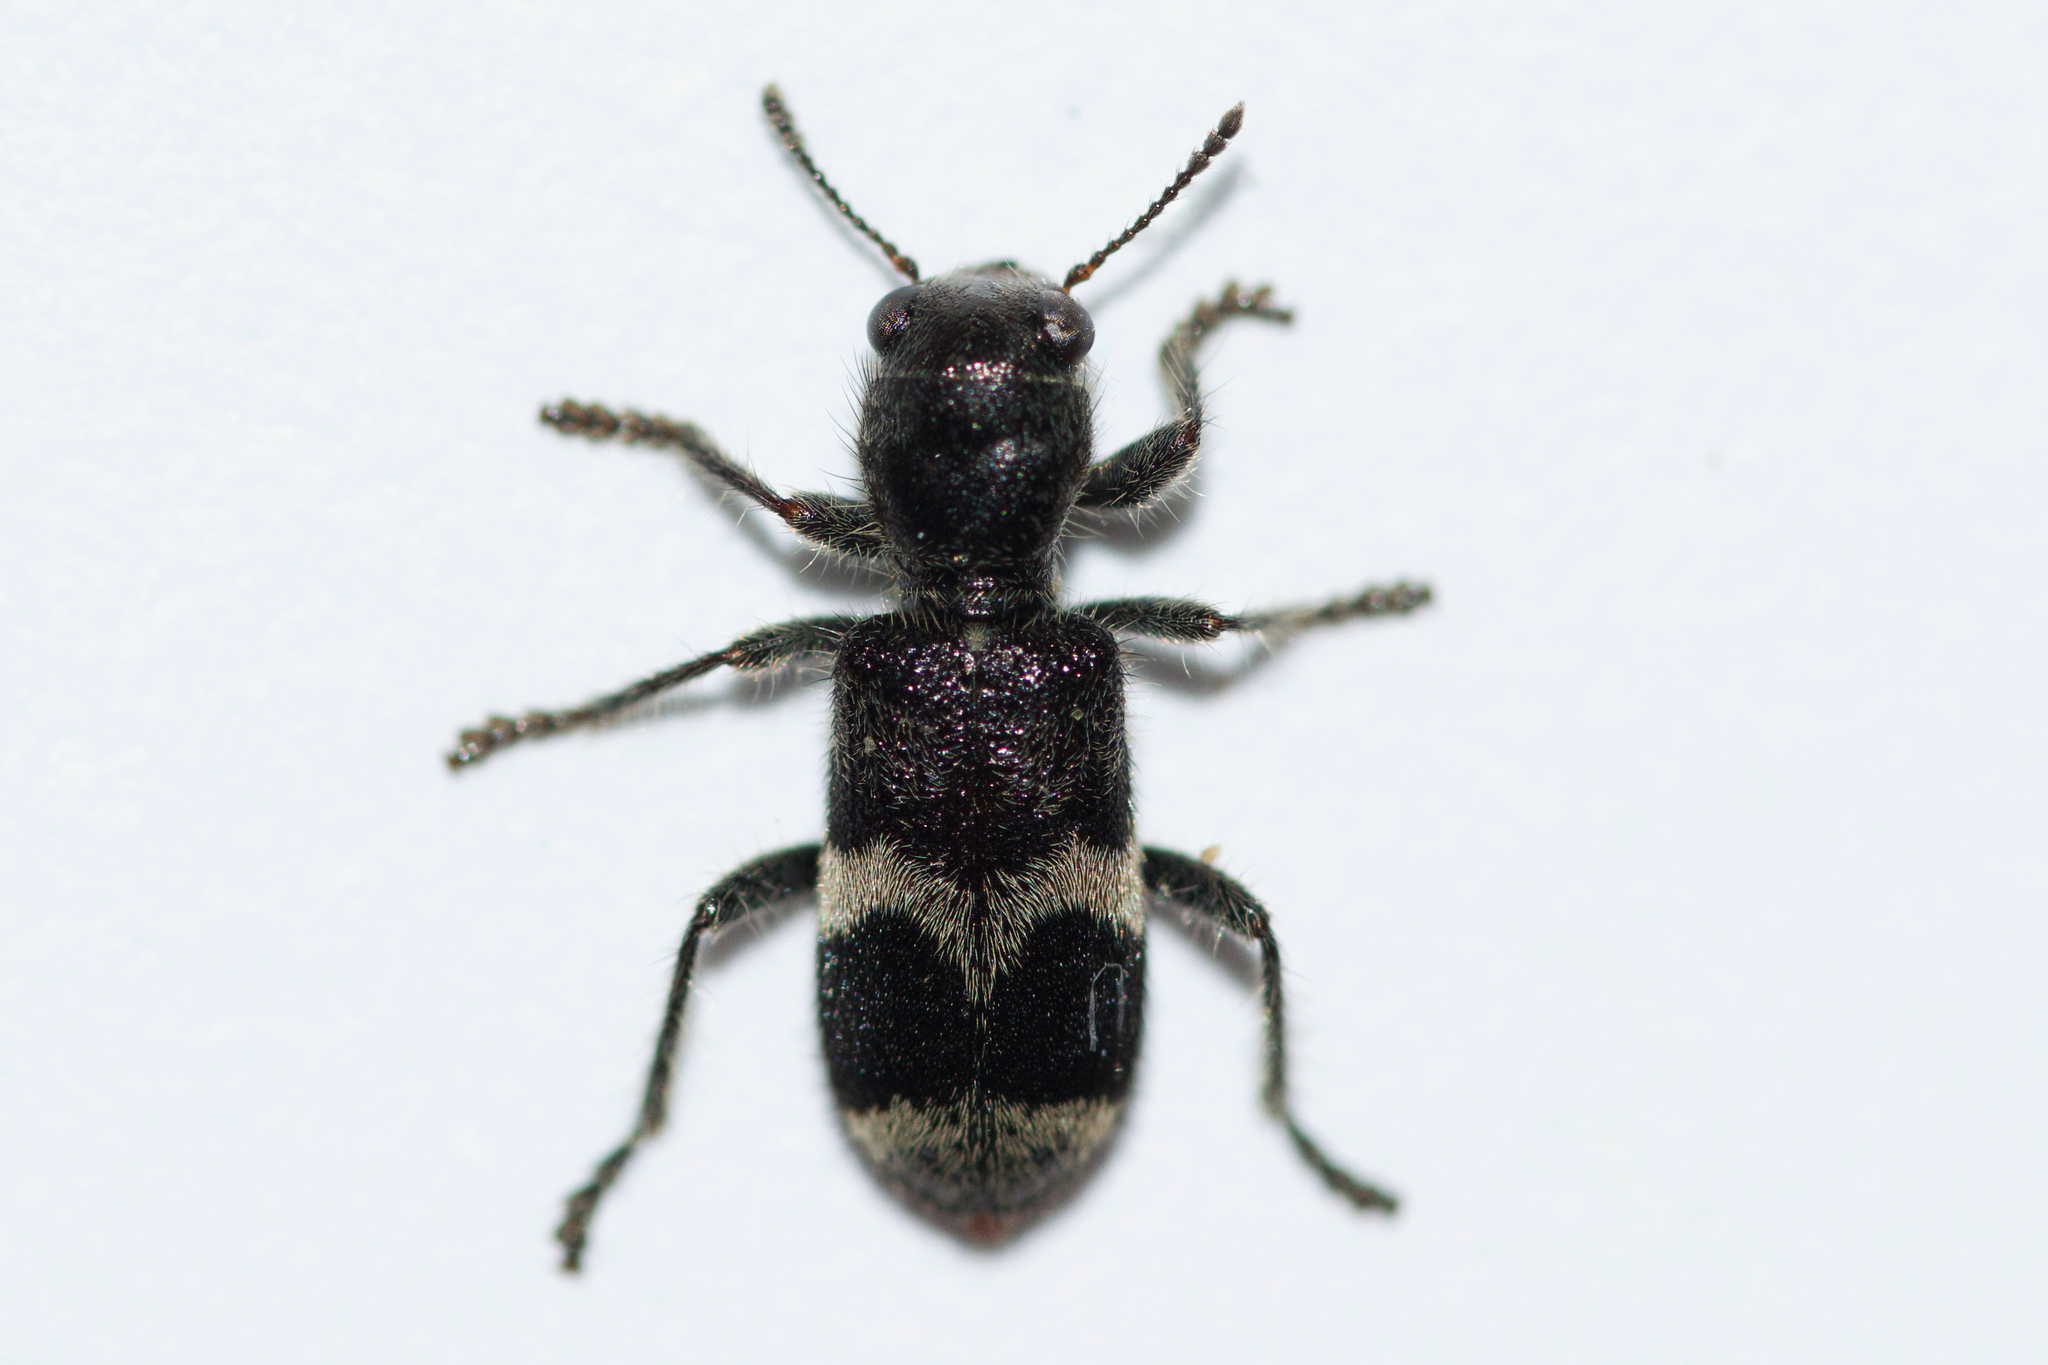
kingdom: Animalia
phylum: Arthropoda
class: Insecta
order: Coleoptera
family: Cleridae
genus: Enoclerus
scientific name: Enoclerus nigripes
